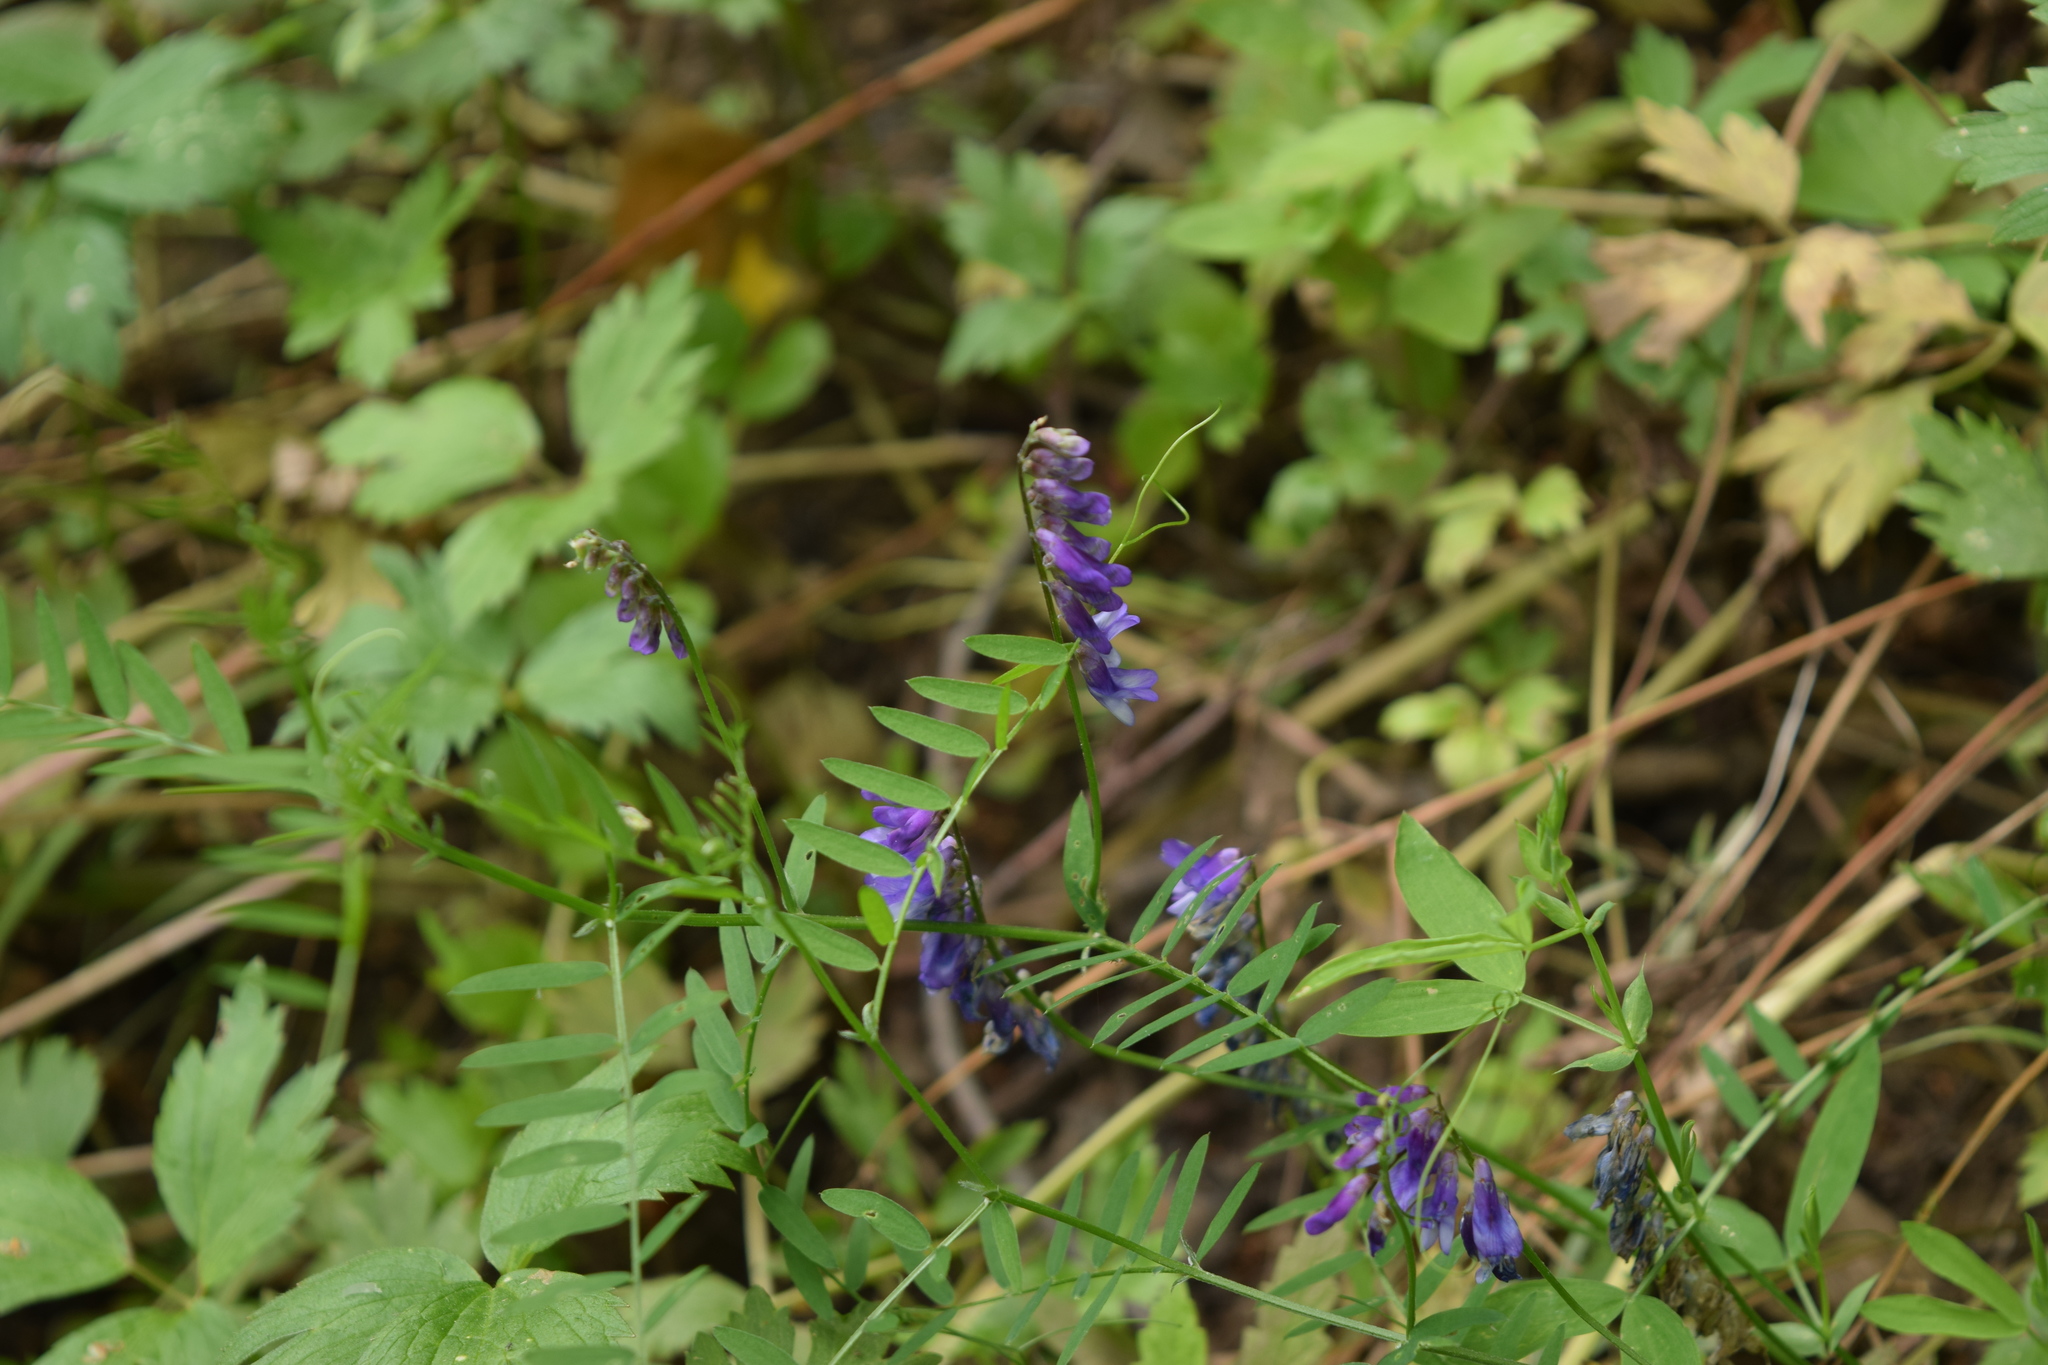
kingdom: Plantae
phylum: Tracheophyta
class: Magnoliopsida
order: Fabales
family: Fabaceae
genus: Vicia
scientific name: Vicia cracca
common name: Bird vetch
